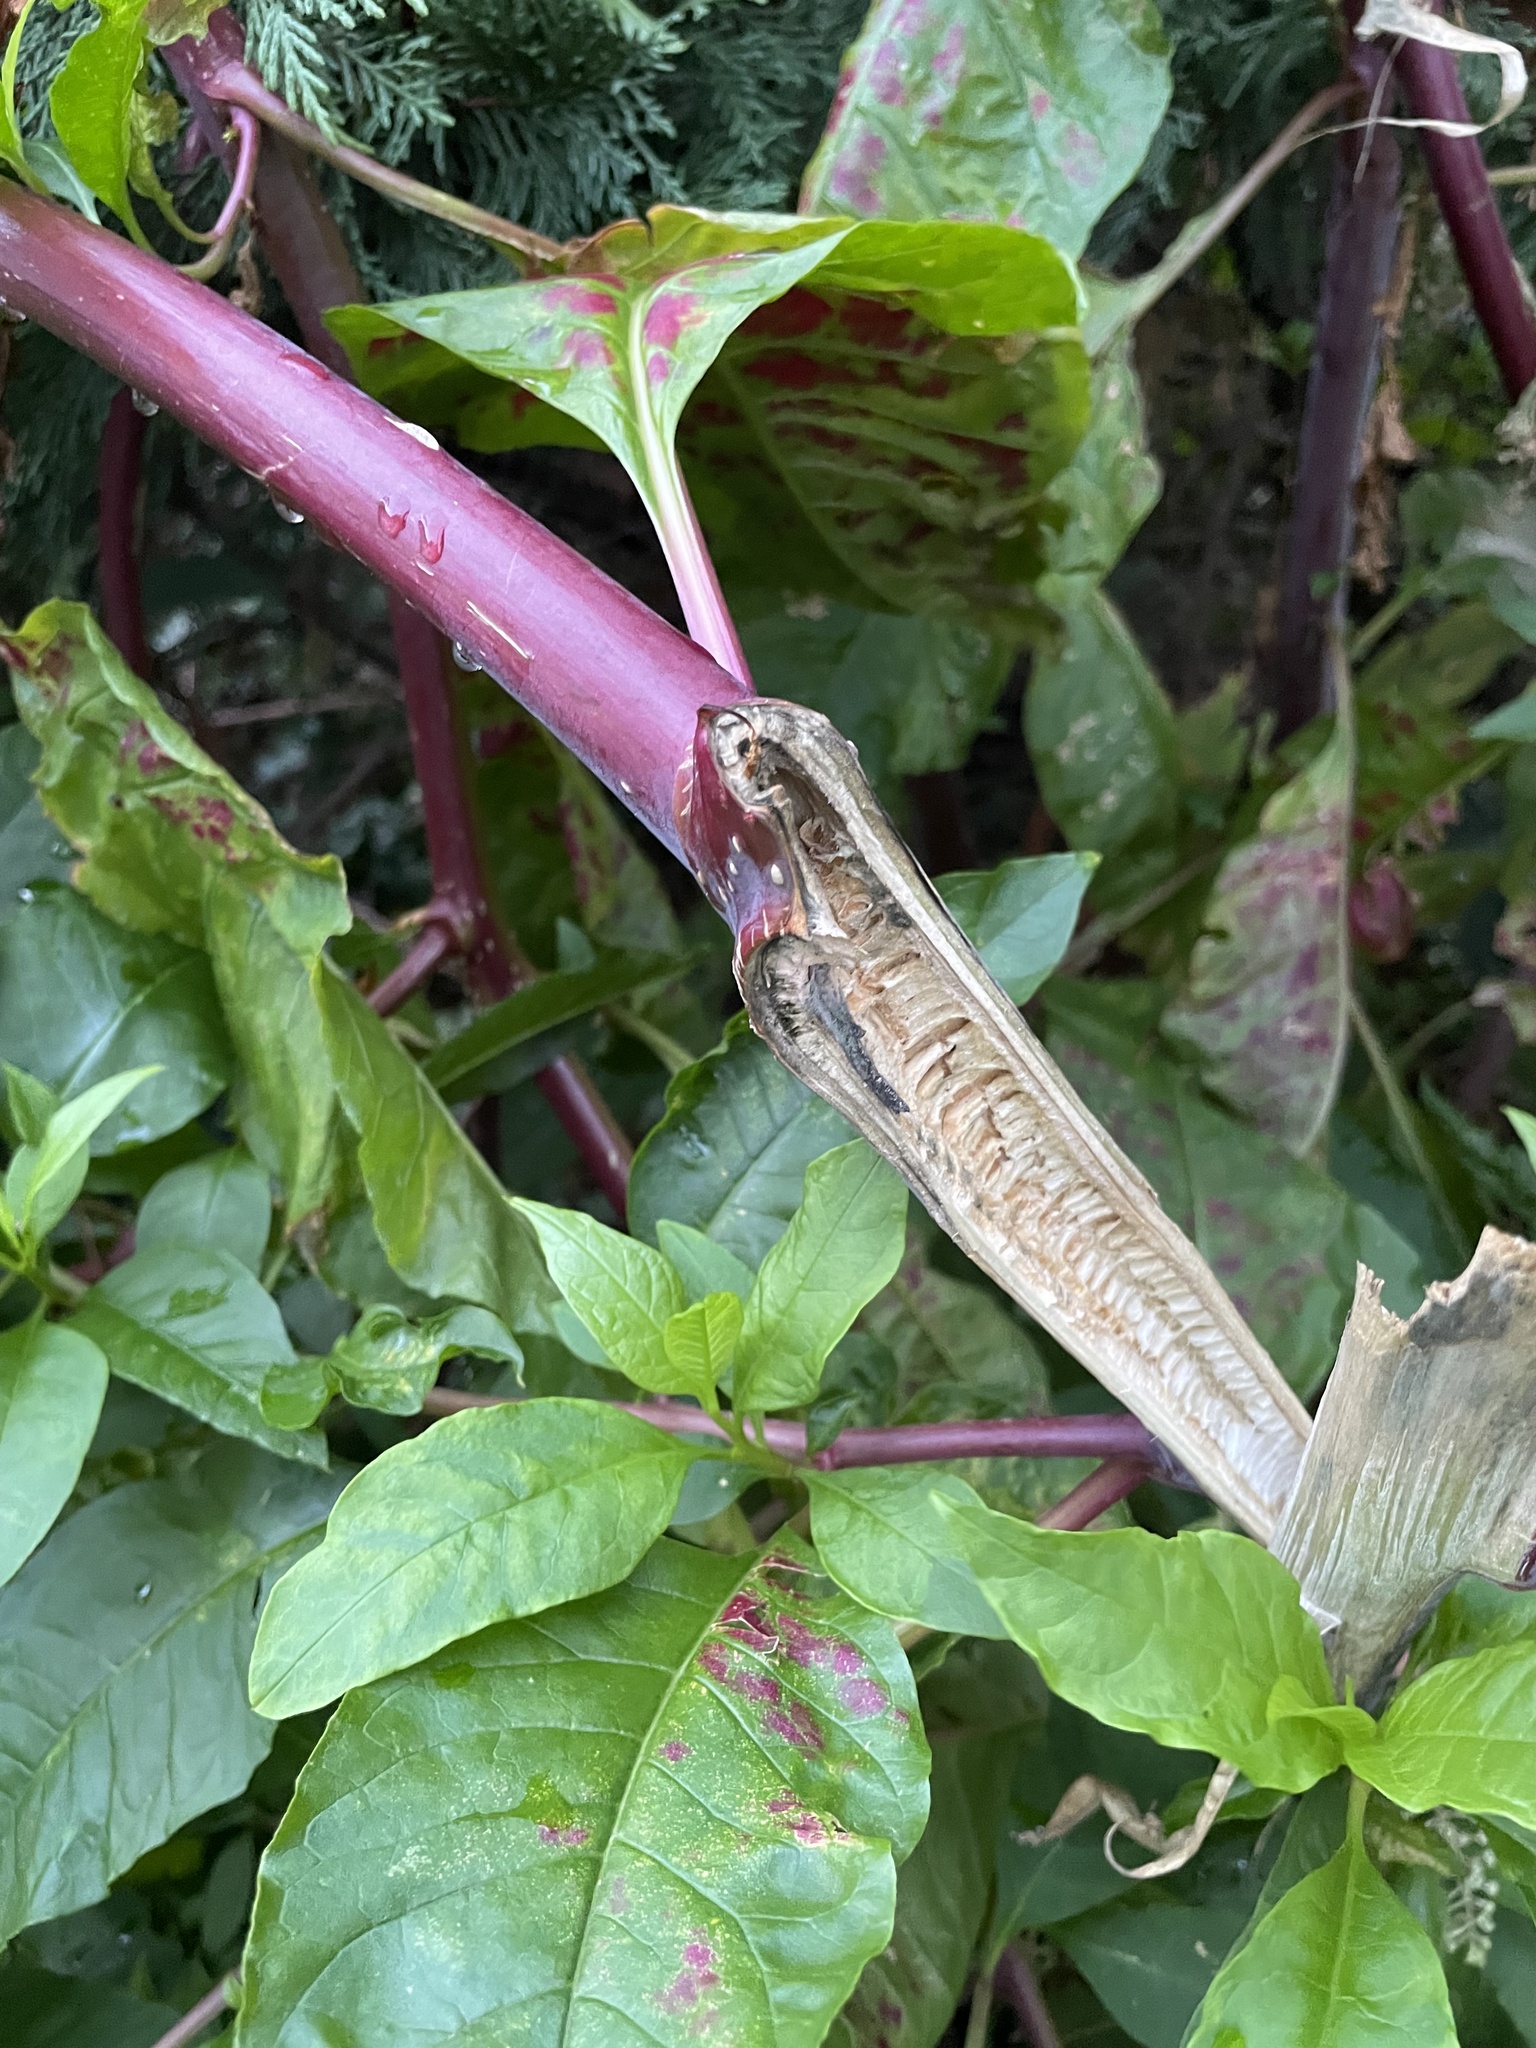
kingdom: Plantae
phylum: Tracheophyta
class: Magnoliopsida
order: Caryophyllales
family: Phytolaccaceae
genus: Phytolacca
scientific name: Phytolacca americana
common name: American pokeweed
